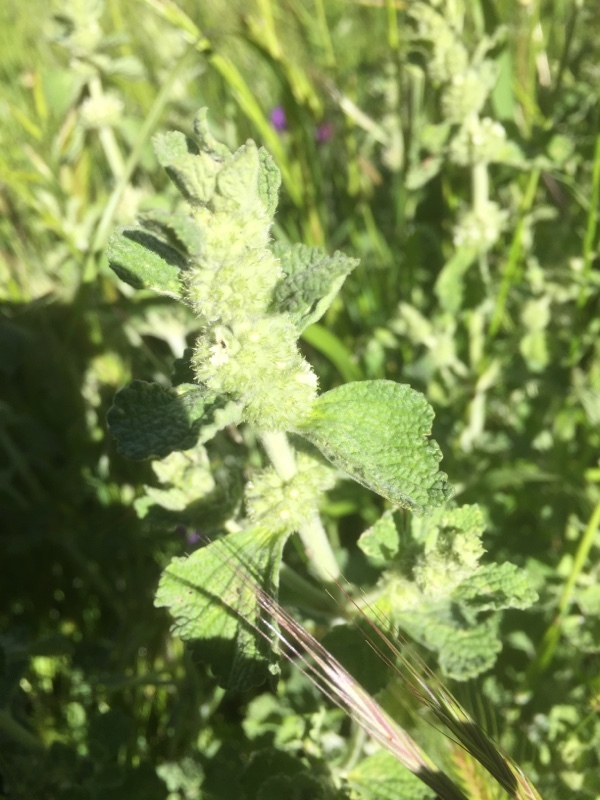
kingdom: Plantae
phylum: Tracheophyta
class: Magnoliopsida
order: Lamiales
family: Lamiaceae
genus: Marrubium
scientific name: Marrubium vulgare
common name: Horehound
